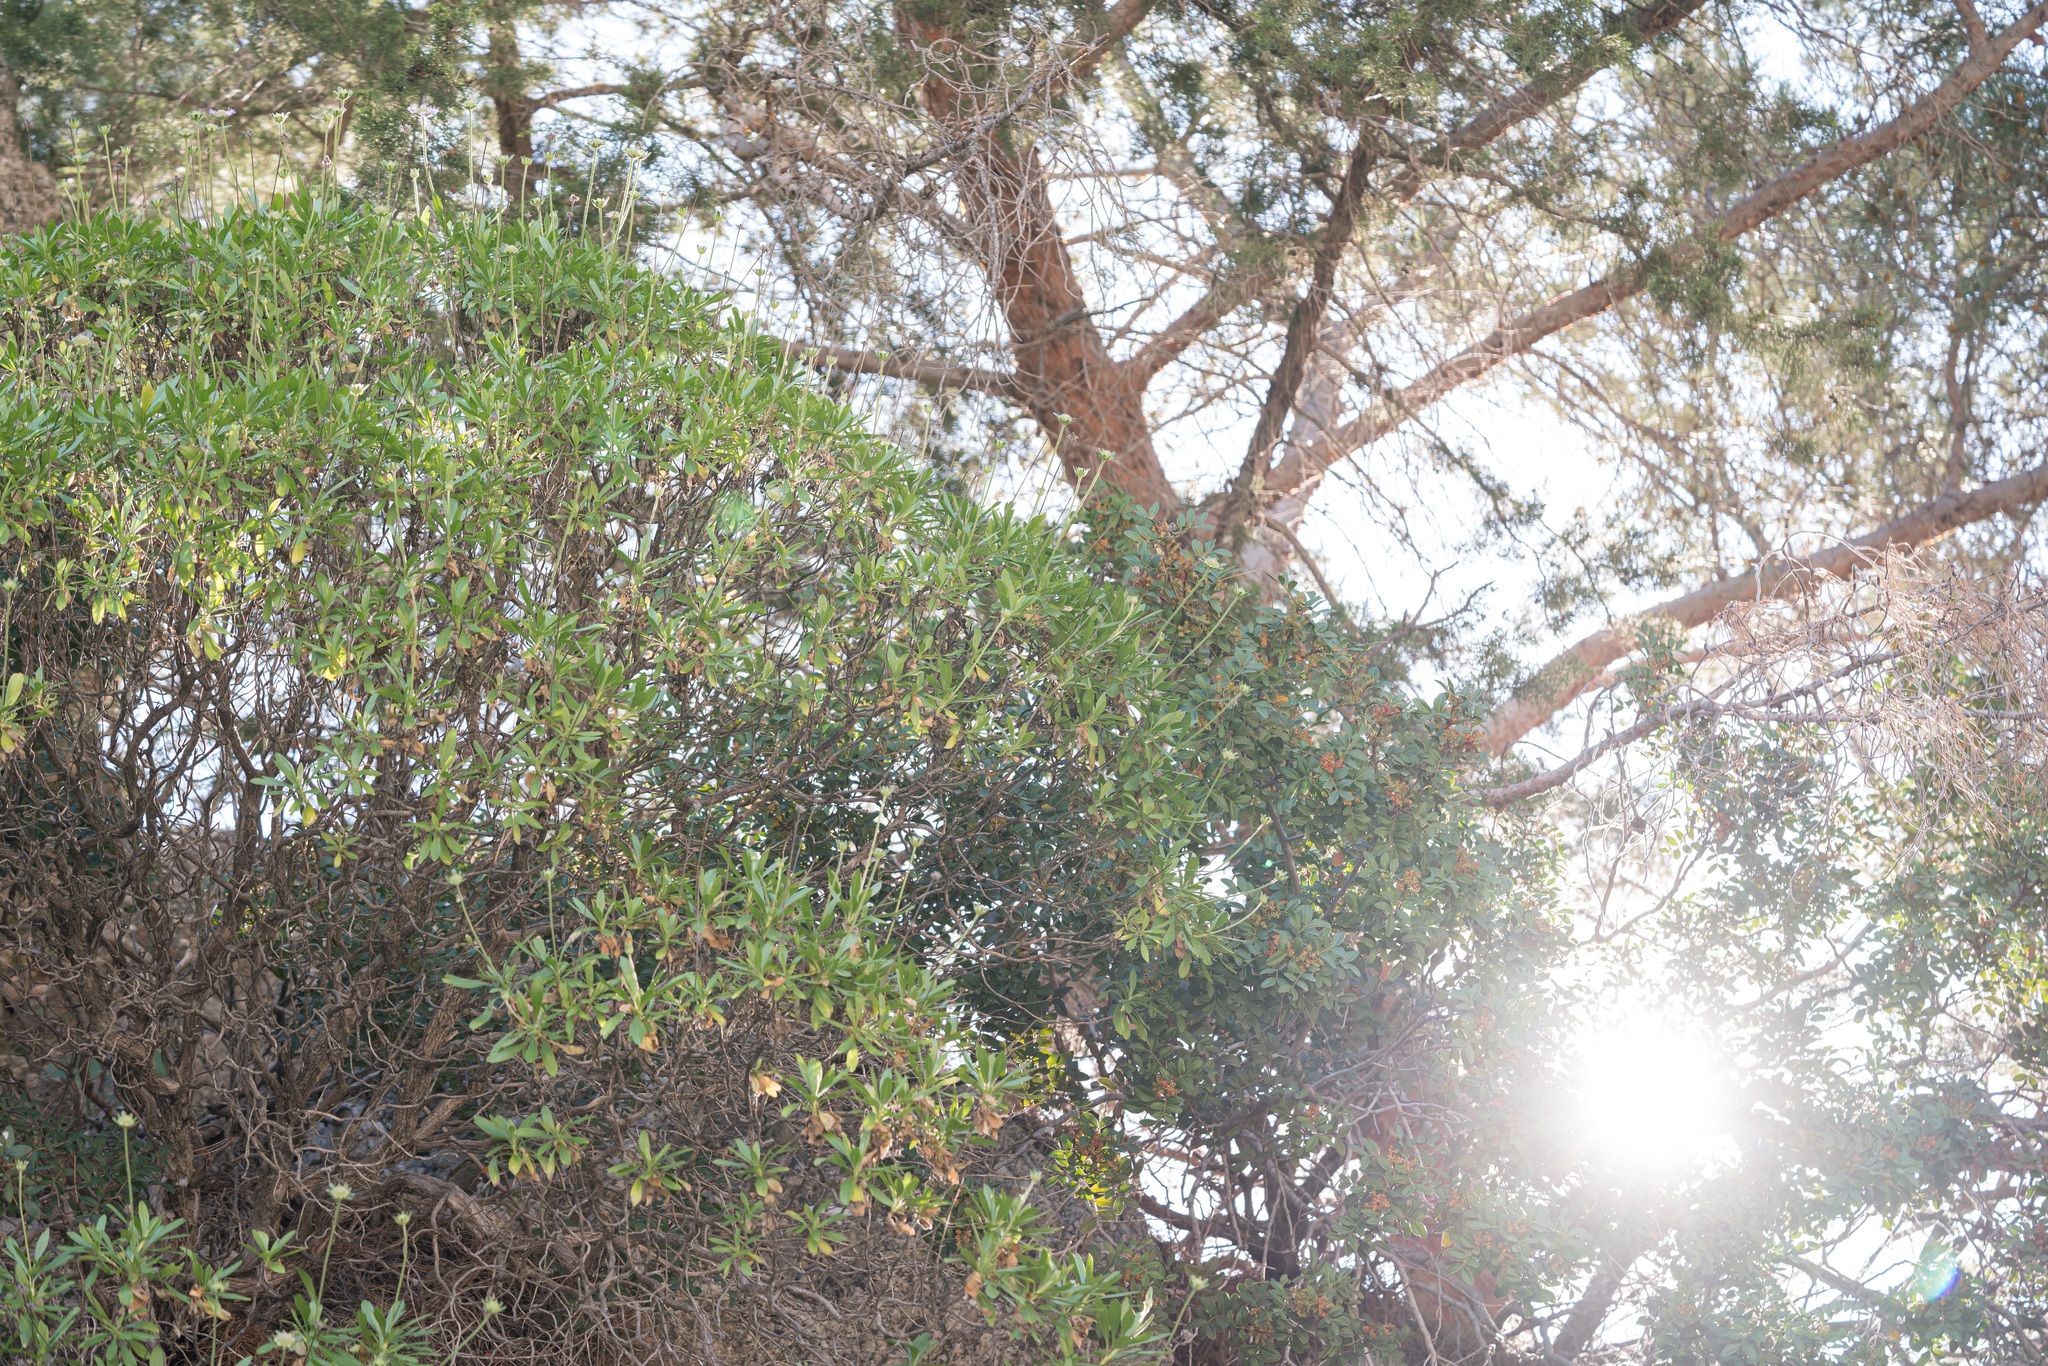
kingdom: Plantae
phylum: Tracheophyta
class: Magnoliopsida
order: Dipsacales
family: Caprifoliaceae
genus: Lomelosia
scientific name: Lomelosia variifolia
